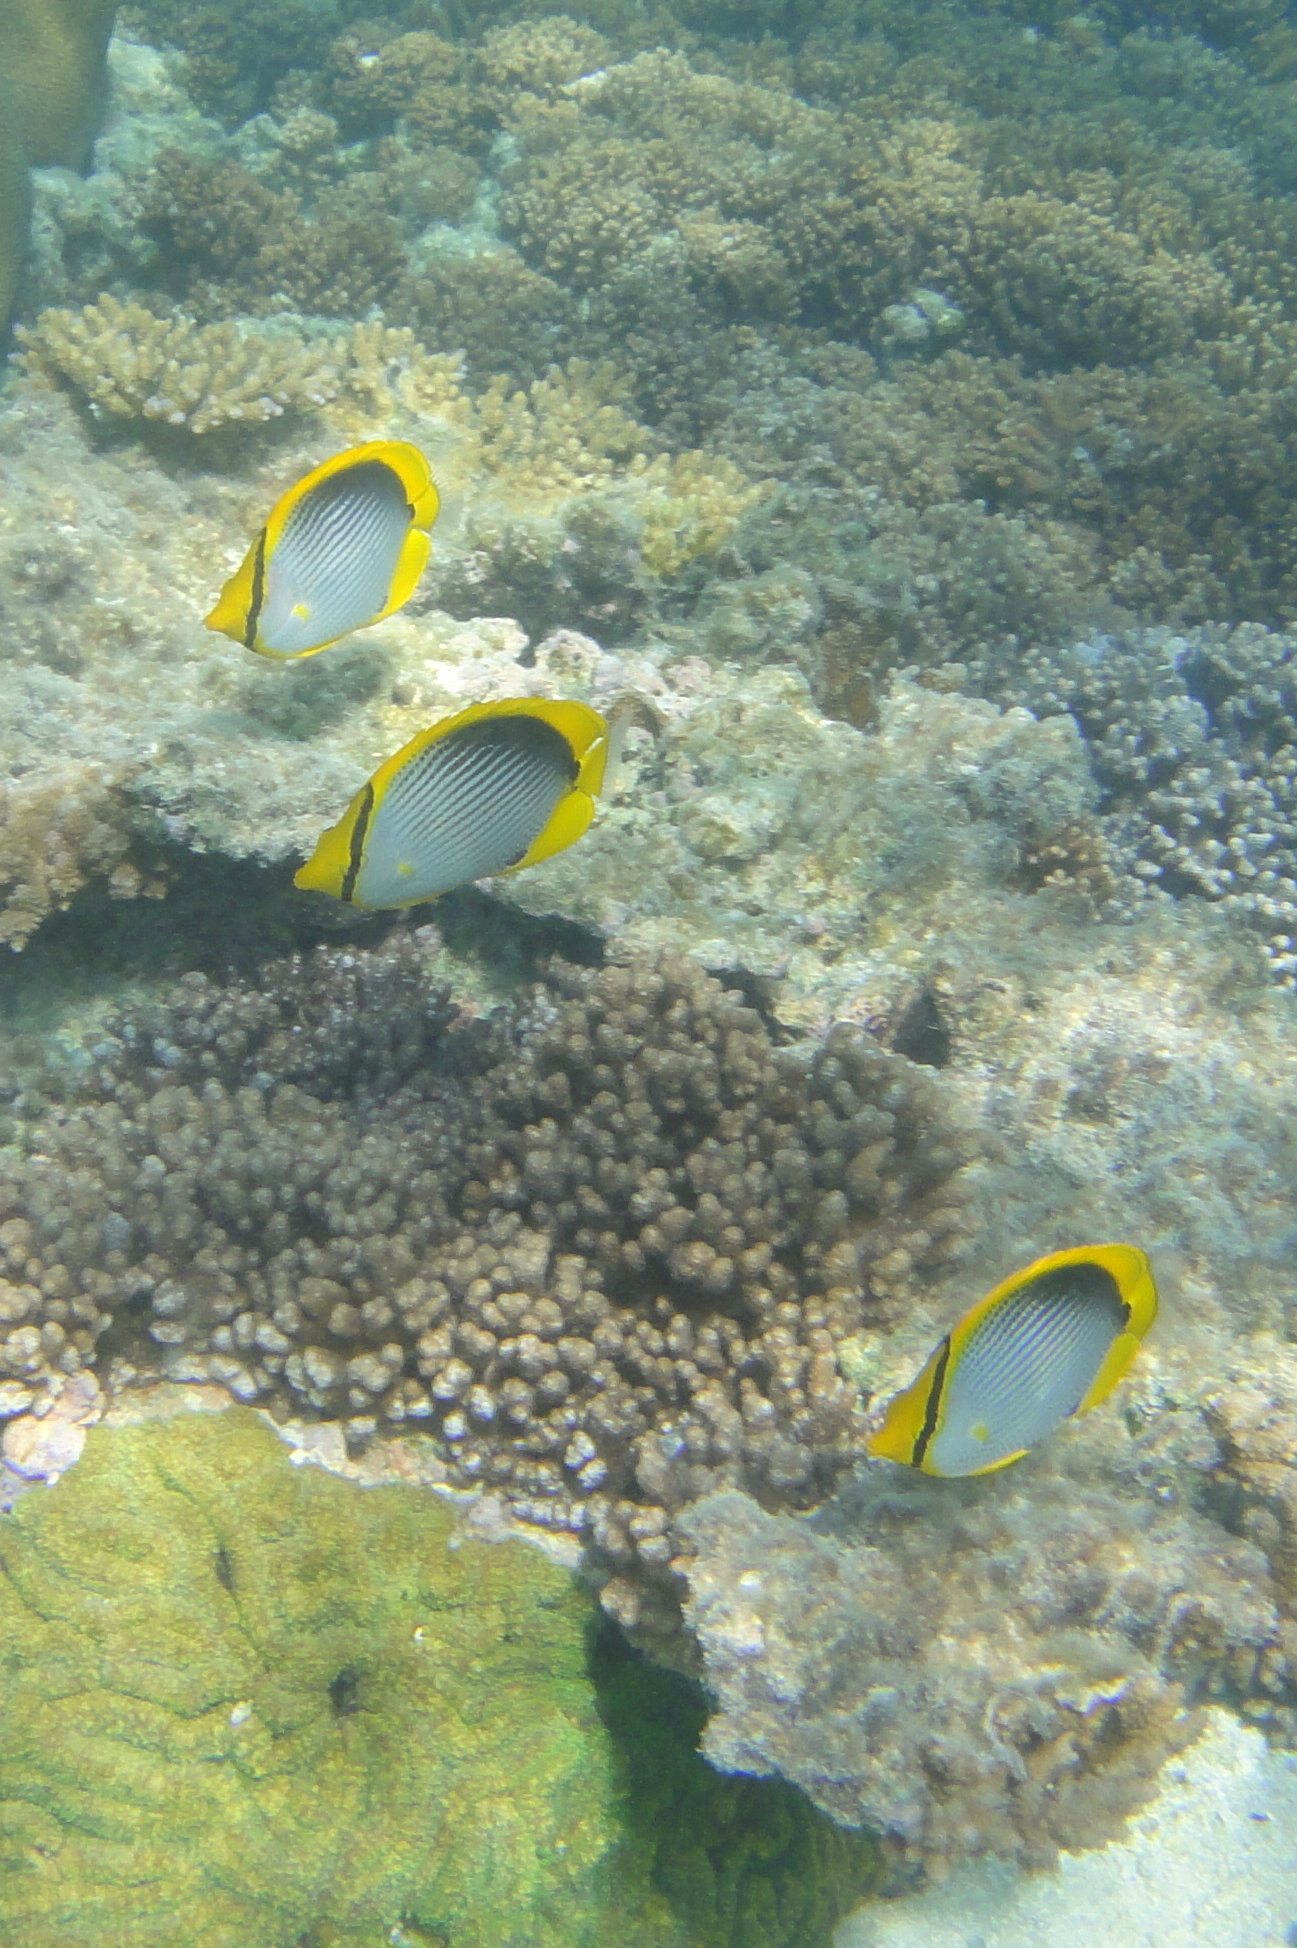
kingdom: Animalia
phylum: Chordata
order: Perciformes
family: Chaetodontidae
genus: Chaetodon
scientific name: Chaetodon melannotus
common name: Blackback butterflyfish
